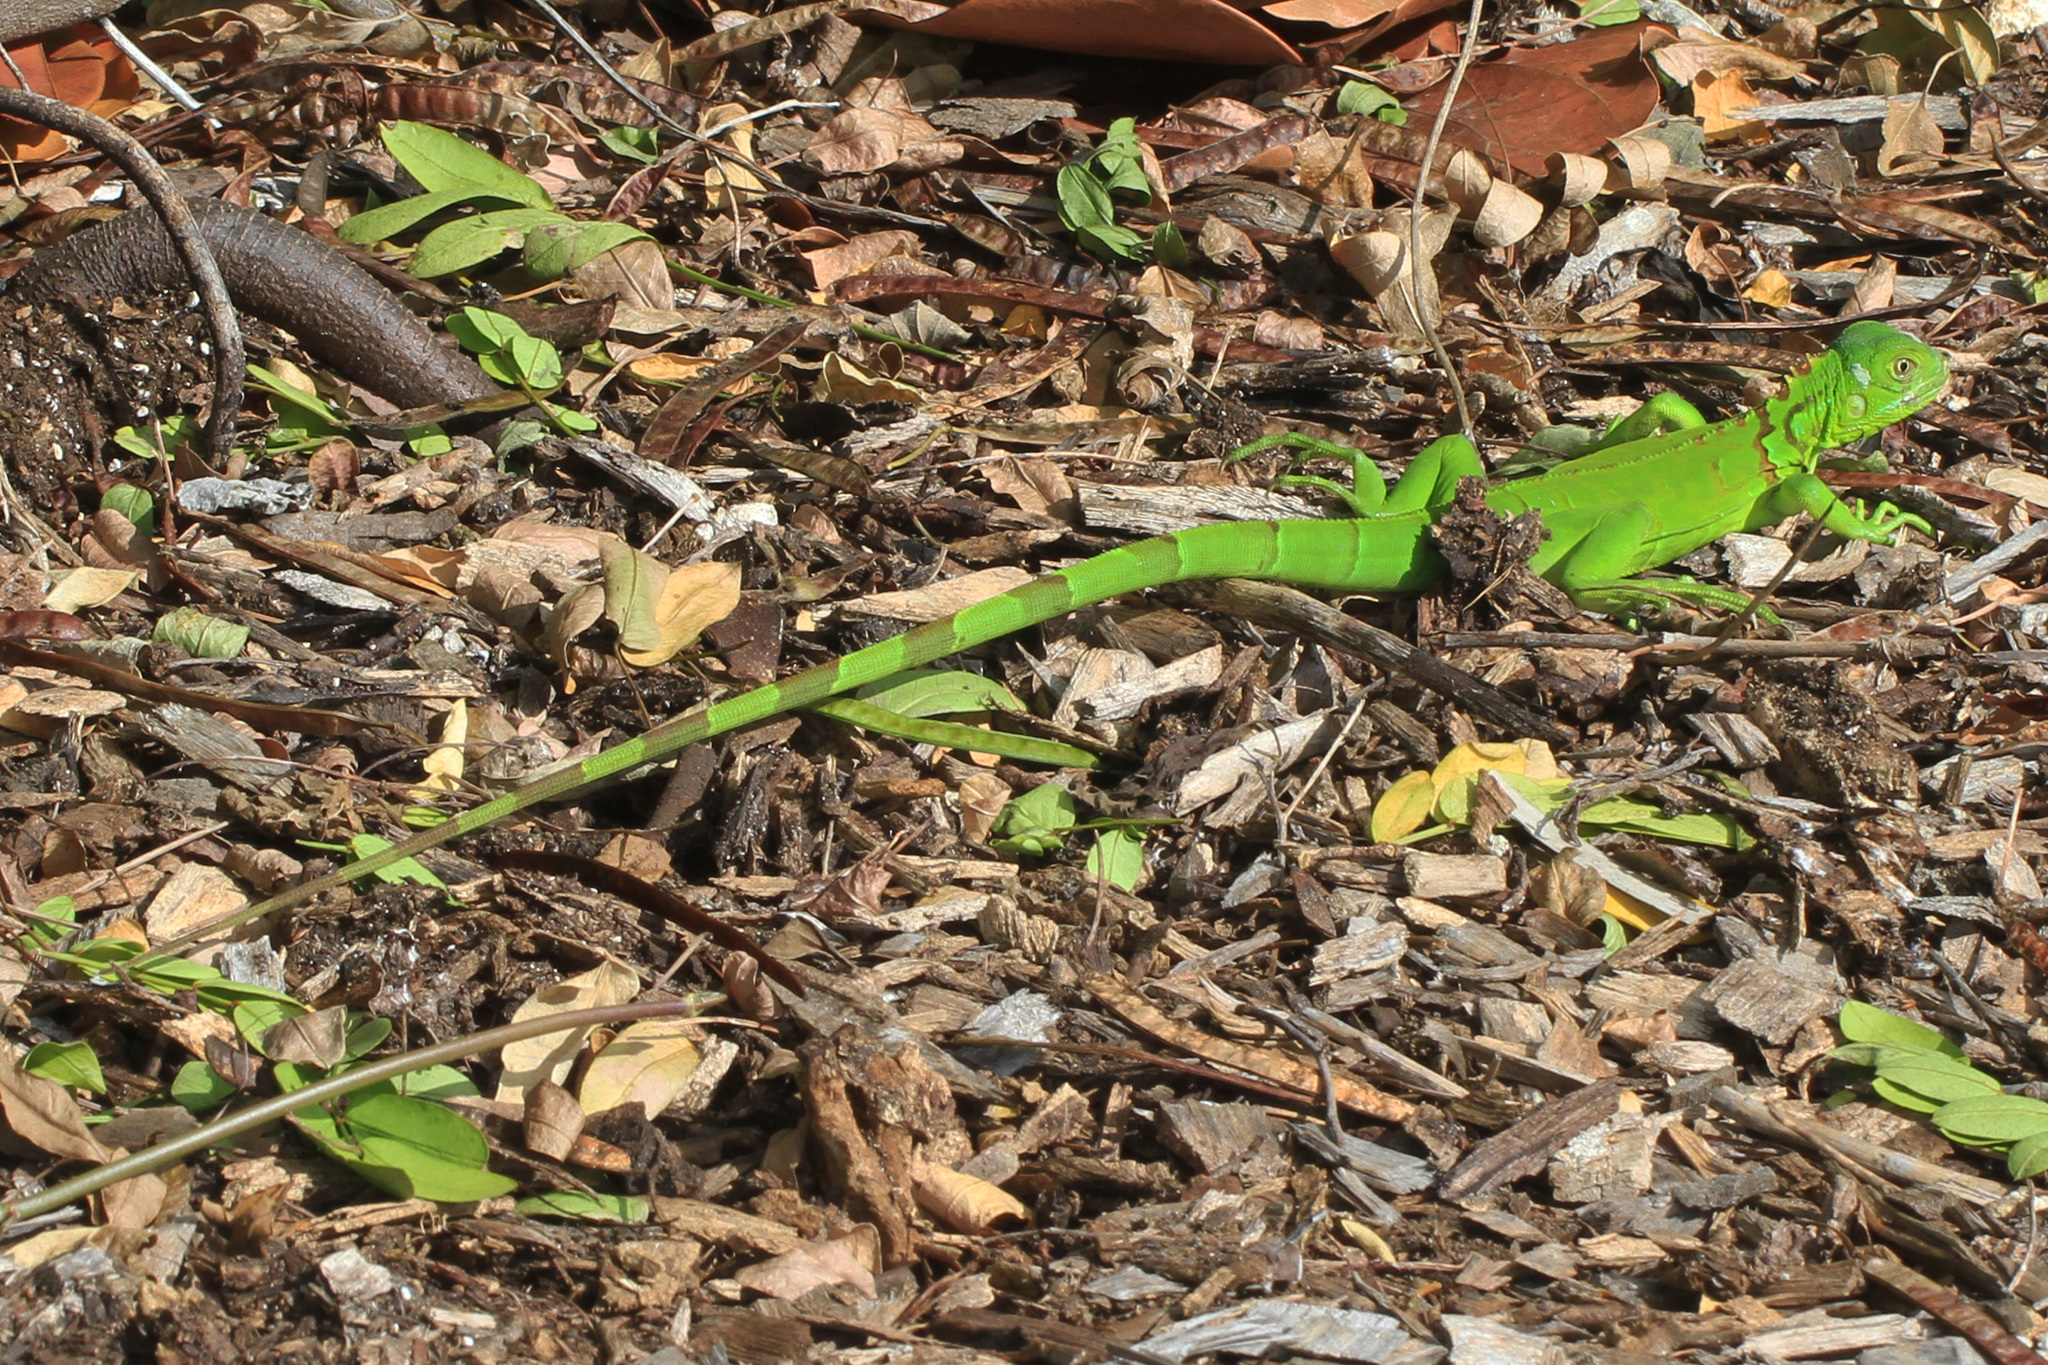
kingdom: Animalia
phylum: Chordata
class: Squamata
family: Iguanidae
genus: Iguana
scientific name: Iguana iguana
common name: Green iguana
